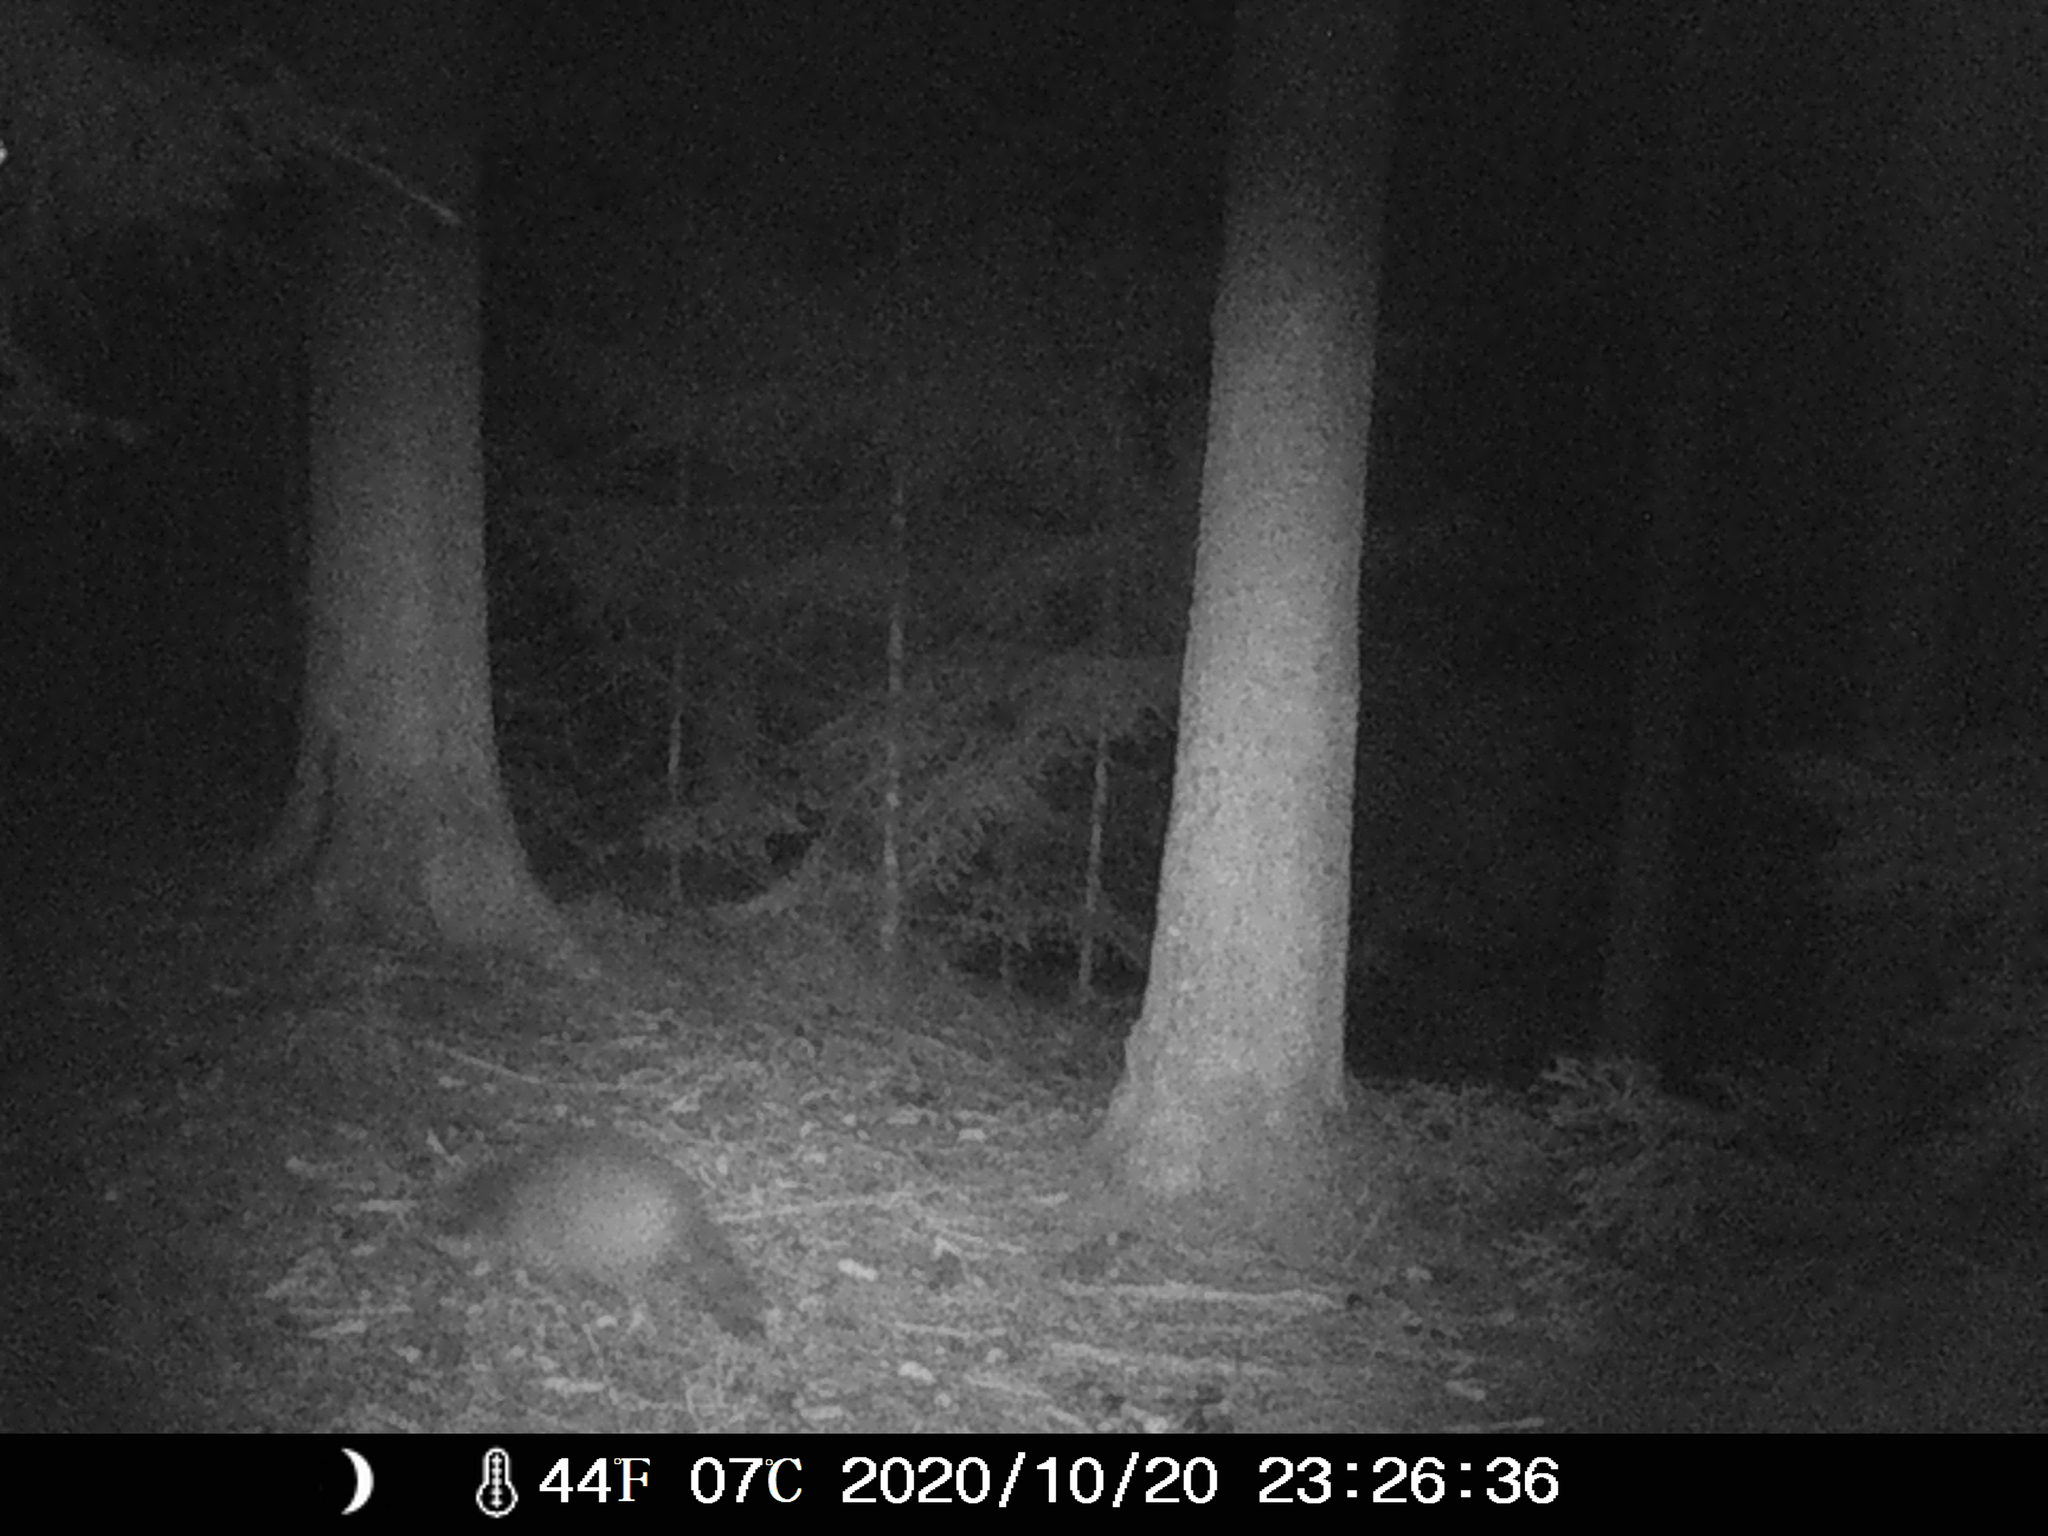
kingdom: Animalia
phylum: Chordata
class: Mammalia
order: Carnivora
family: Procyonidae
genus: Procyon
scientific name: Procyon lotor
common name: Raccoon
